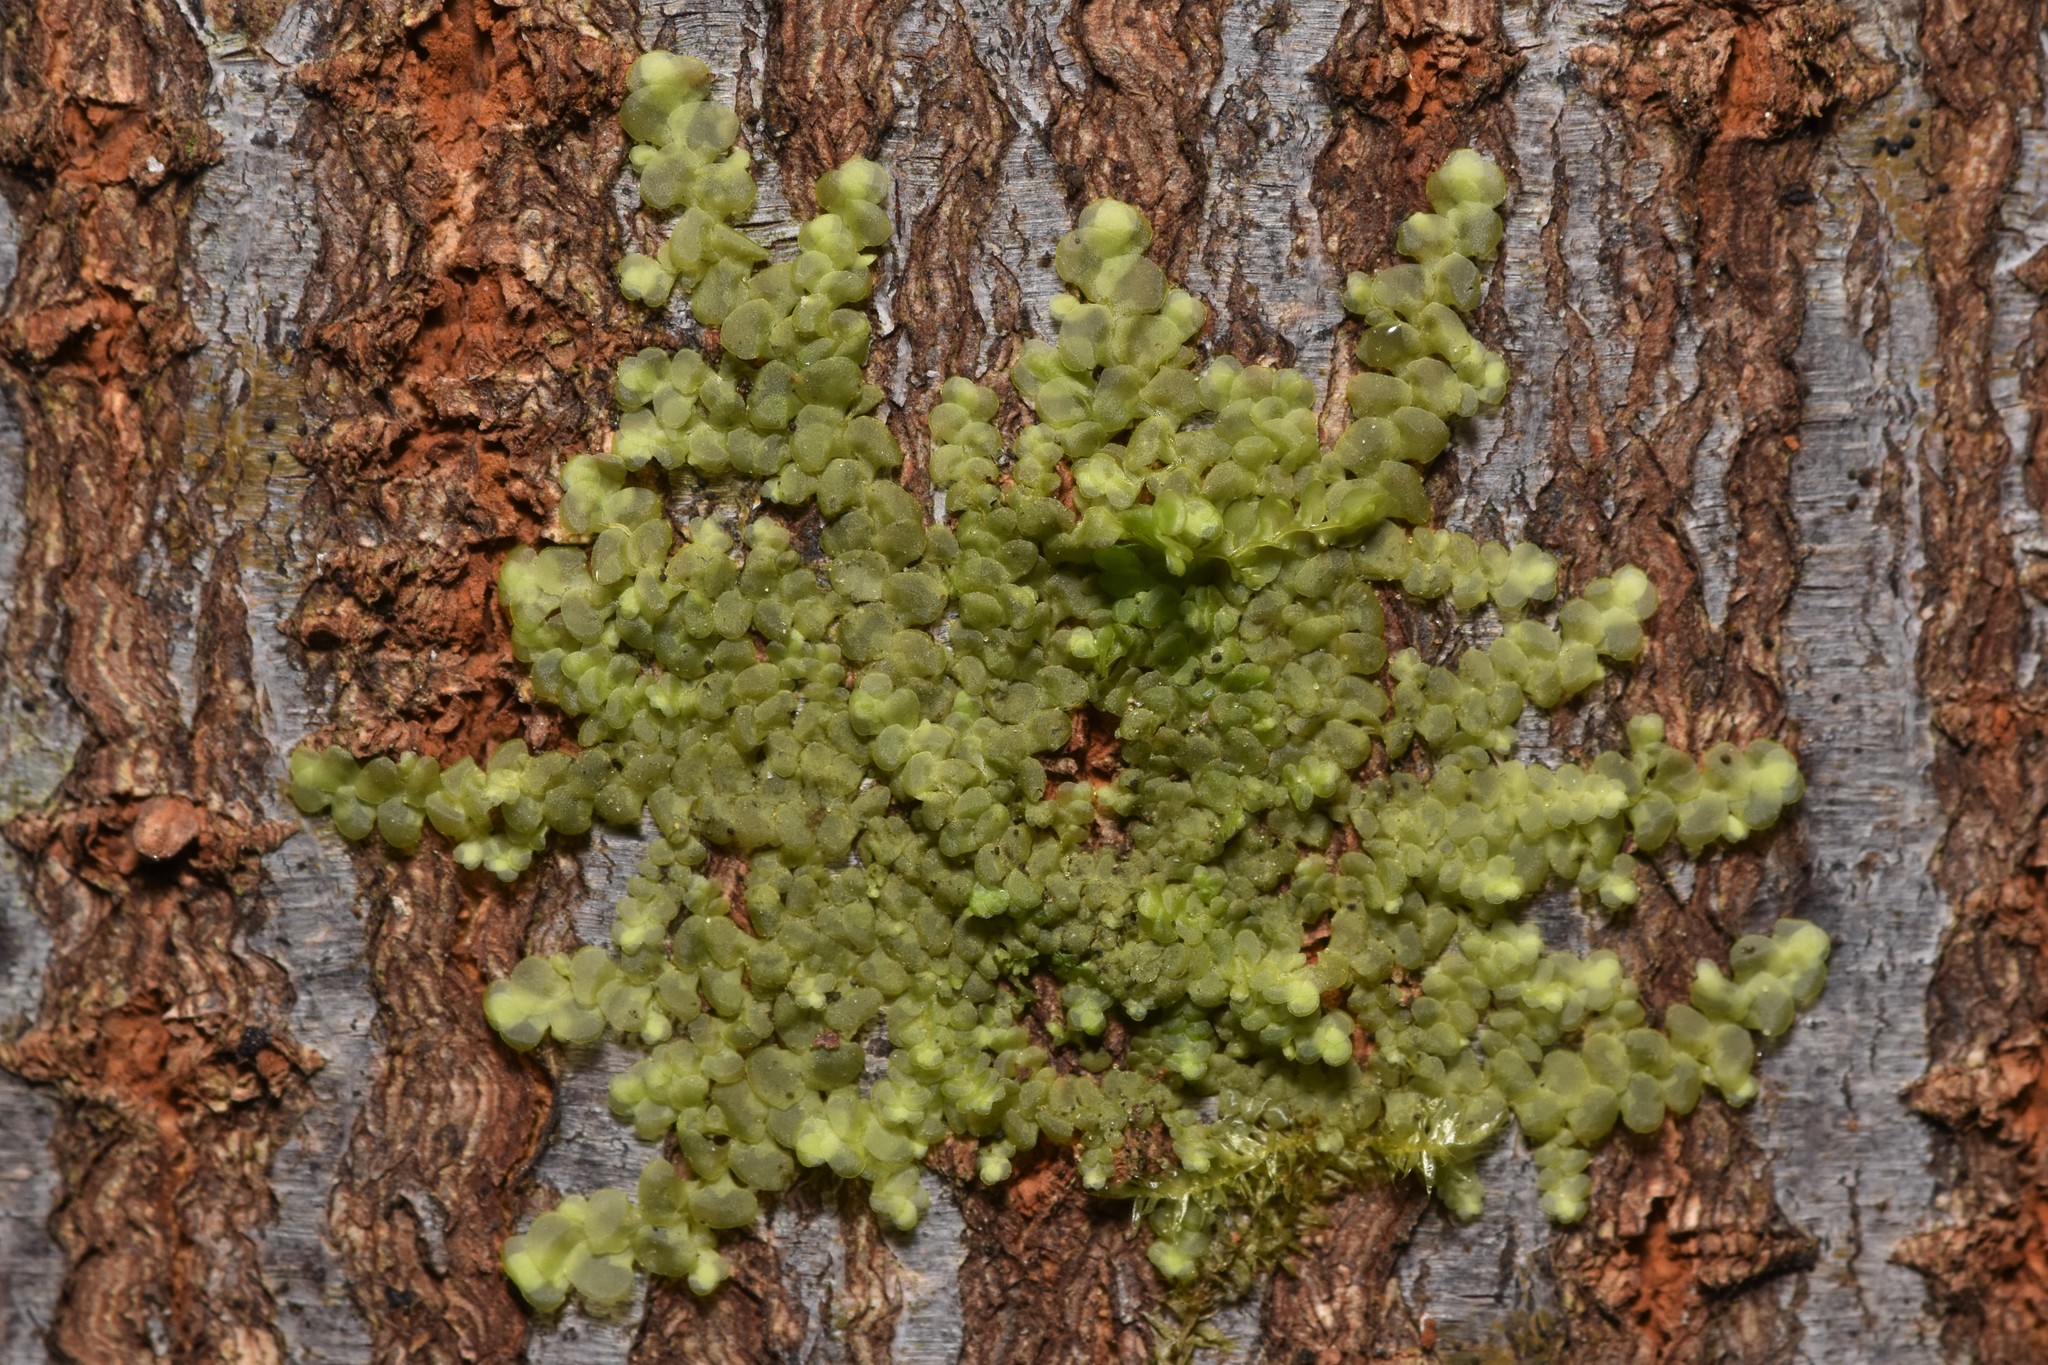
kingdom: Plantae
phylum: Marchantiophyta
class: Jungermanniopsida
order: Porellales
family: Radulaceae
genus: Radula
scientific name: Radula complanata
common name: Flat-leaved scalewort
